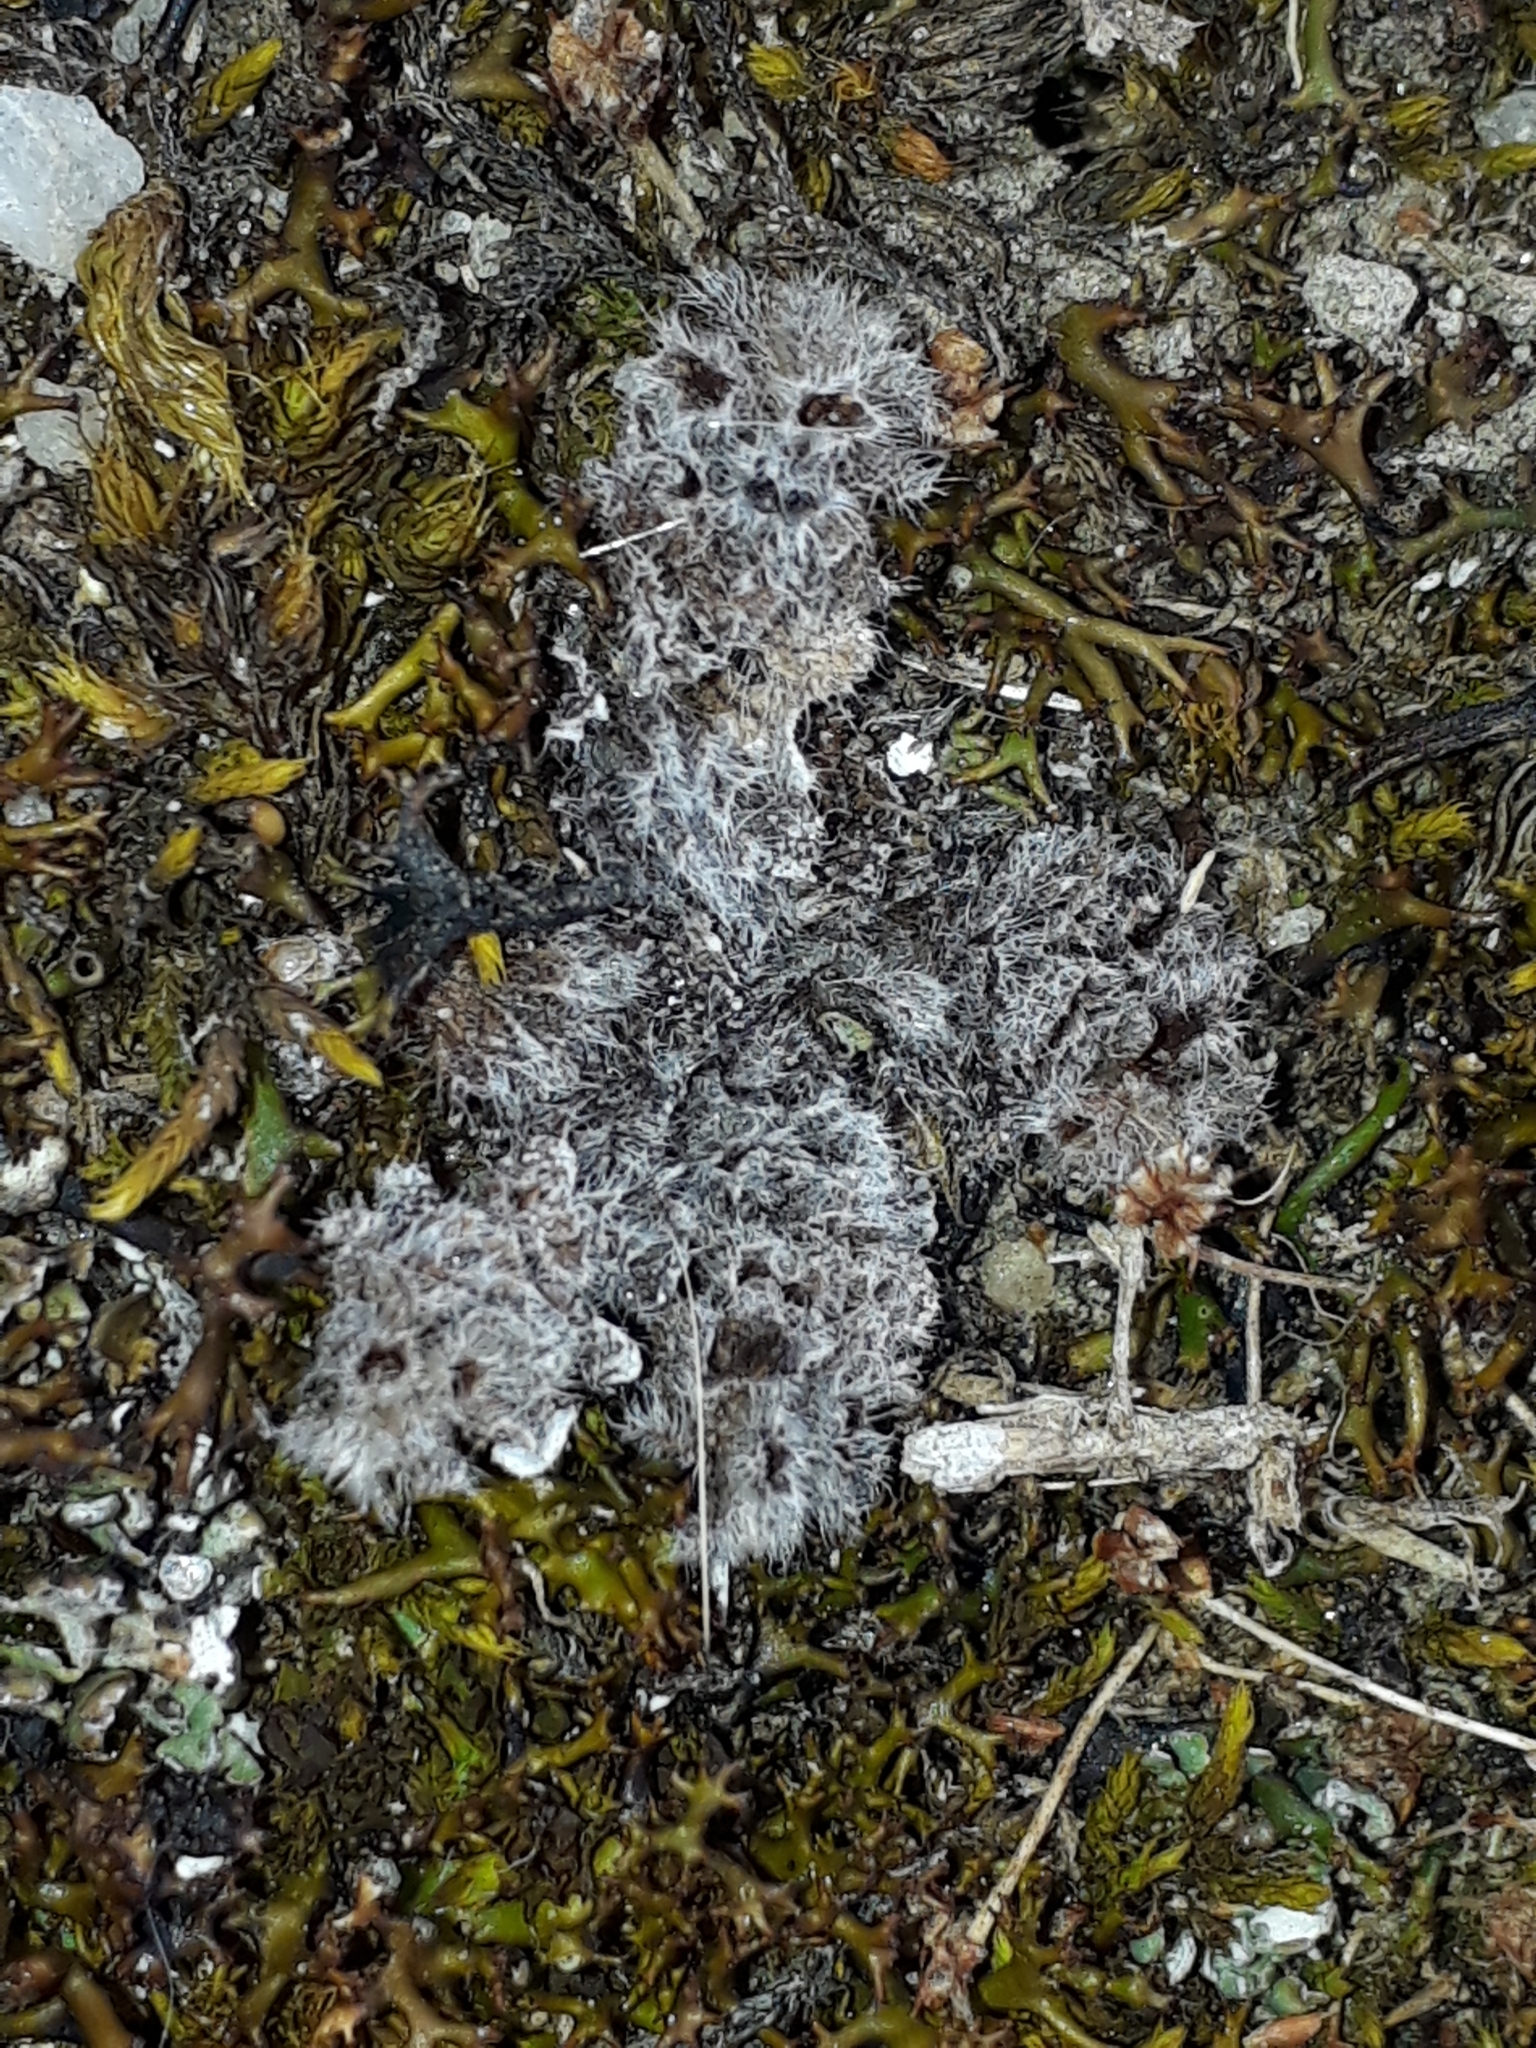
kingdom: Plantae
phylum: Tracheophyta
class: Magnoliopsida
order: Boraginales
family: Boraginaceae
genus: Myosotis
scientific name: Myosotis brevis
